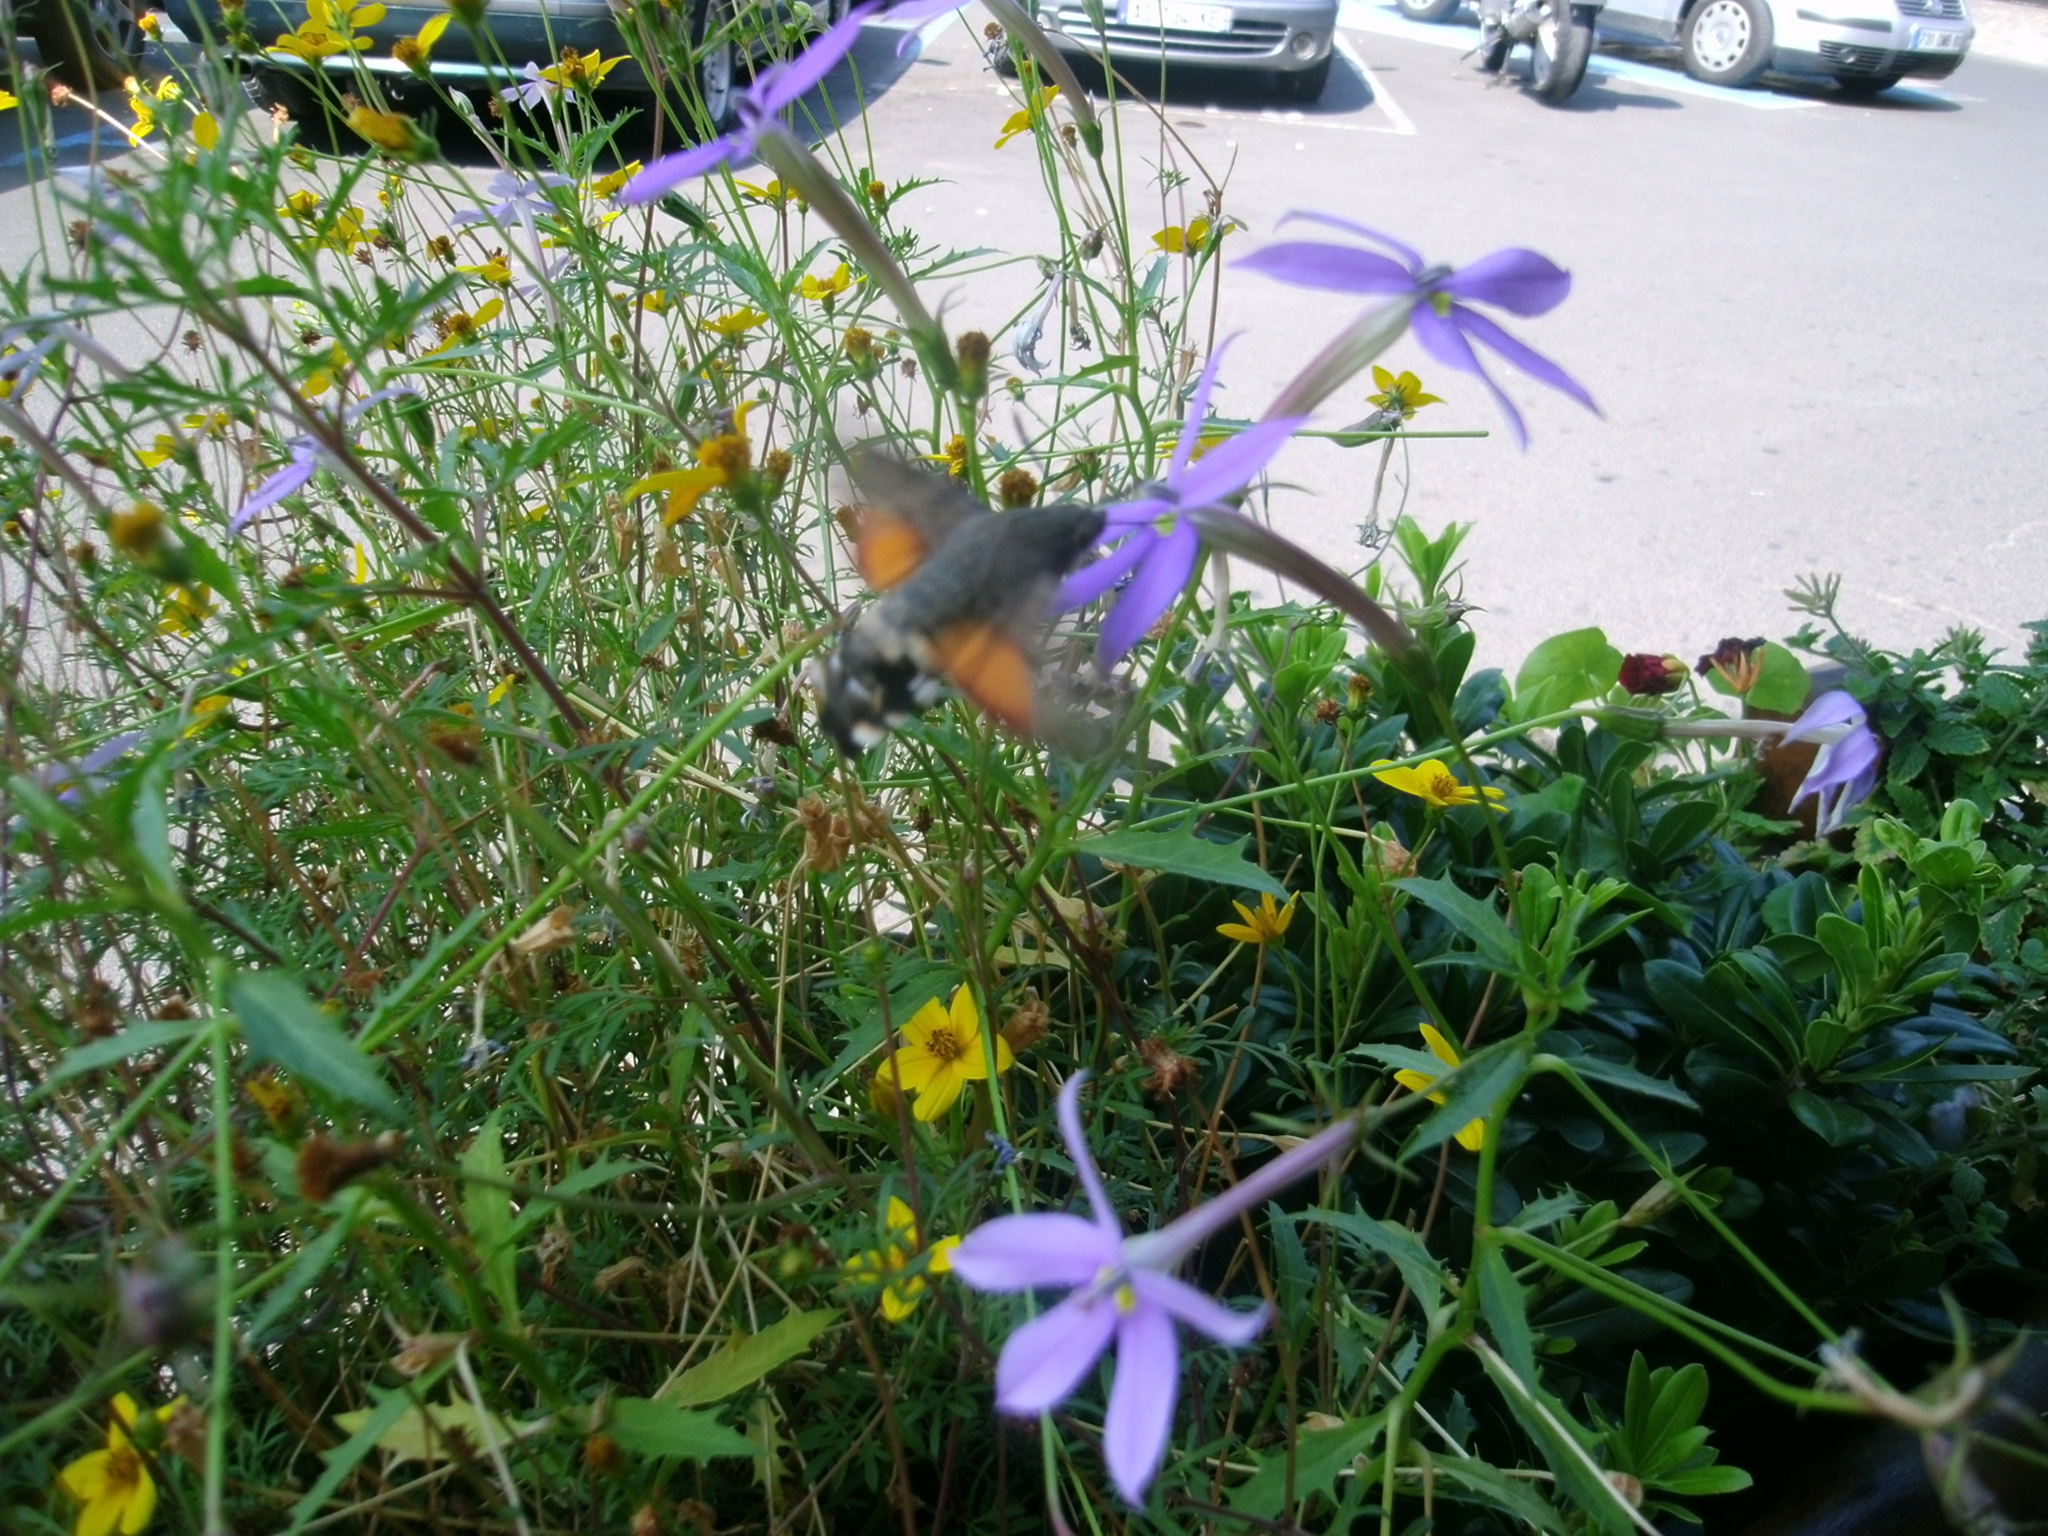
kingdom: Animalia
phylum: Arthropoda
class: Insecta
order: Lepidoptera
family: Sphingidae
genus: Macroglossum
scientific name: Macroglossum stellatarum
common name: Humming-bird hawk-moth
